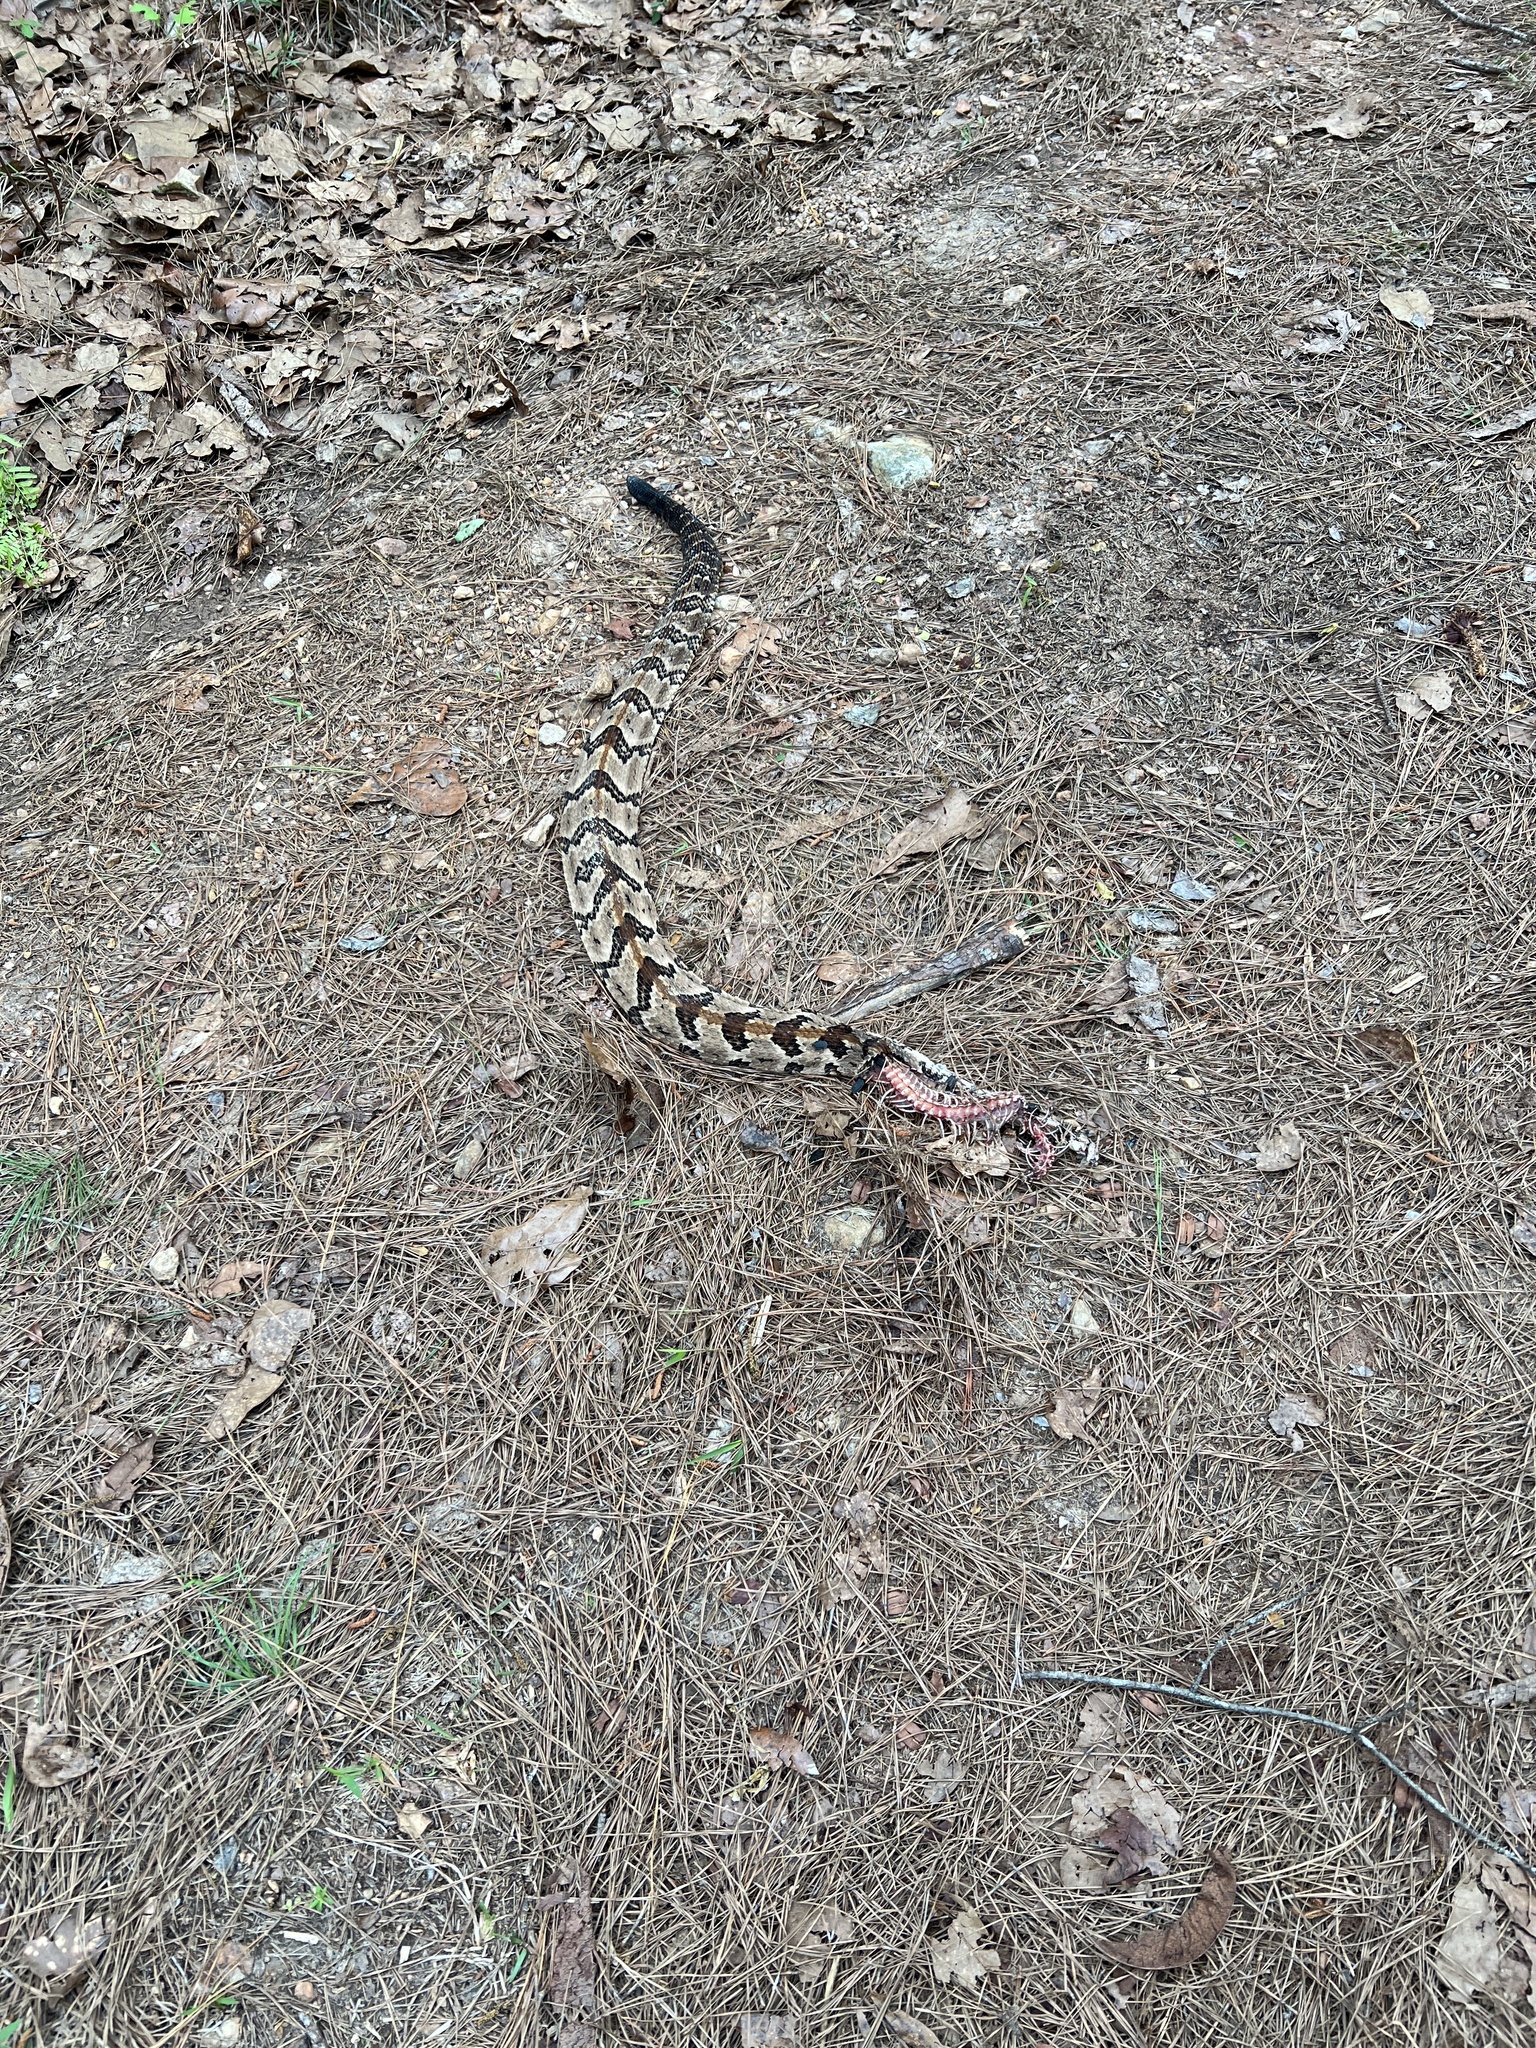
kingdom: Animalia
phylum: Chordata
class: Squamata
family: Viperidae
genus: Crotalus
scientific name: Crotalus horridus
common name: Timber rattlesnake
